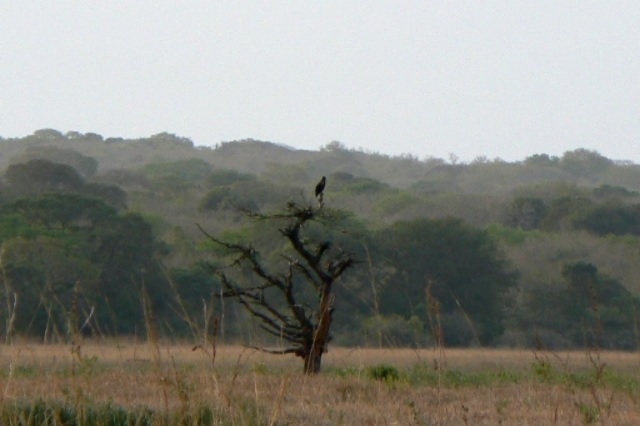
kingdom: Animalia
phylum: Chordata
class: Aves
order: Accipitriformes
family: Accipitridae
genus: Lophaetus
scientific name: Lophaetus occipitalis
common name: Long-crested eagle
